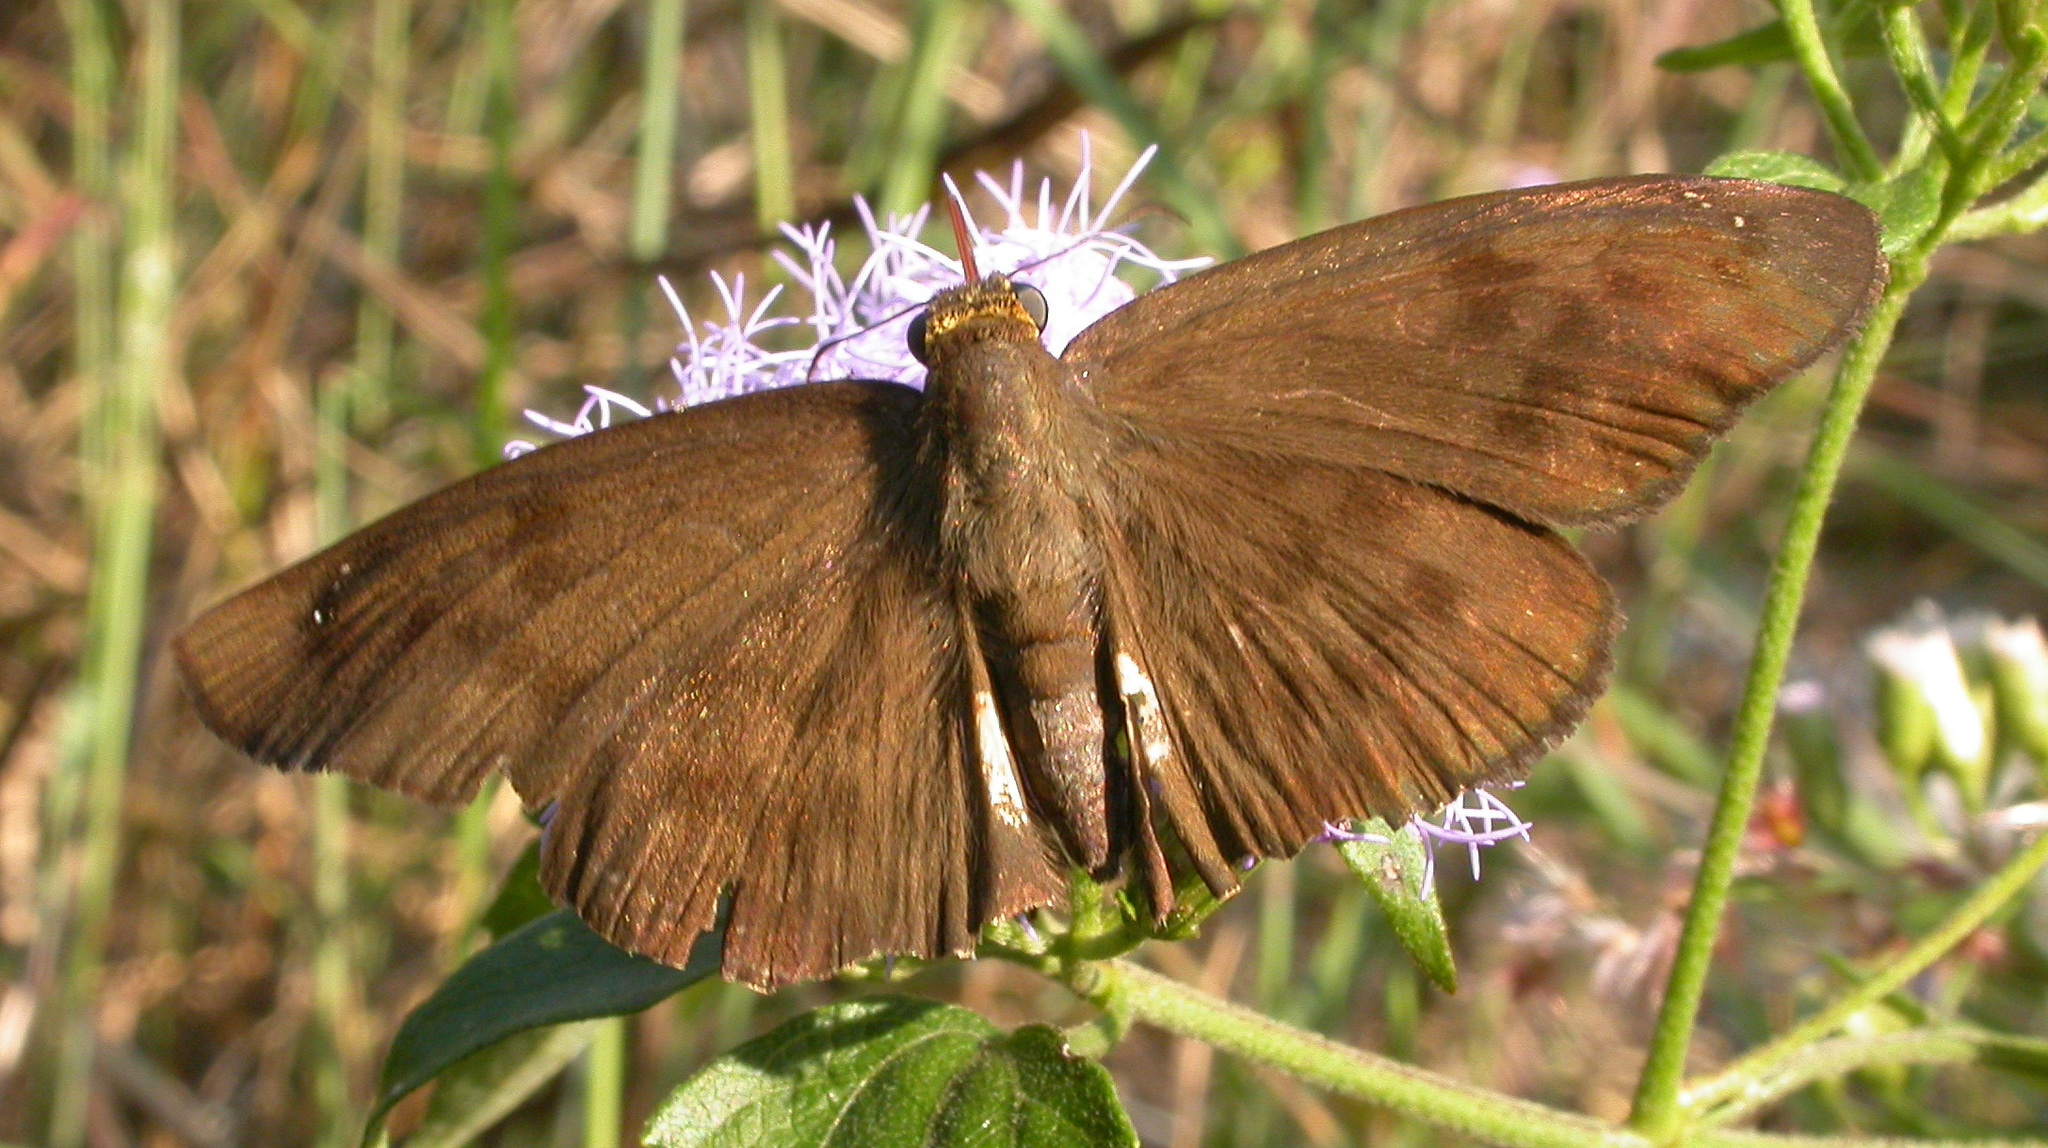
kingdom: Animalia
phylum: Arthropoda
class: Insecta
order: Lepidoptera
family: Hesperiidae
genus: Grais
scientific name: Grais stigmaticus
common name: Hermit skipper
